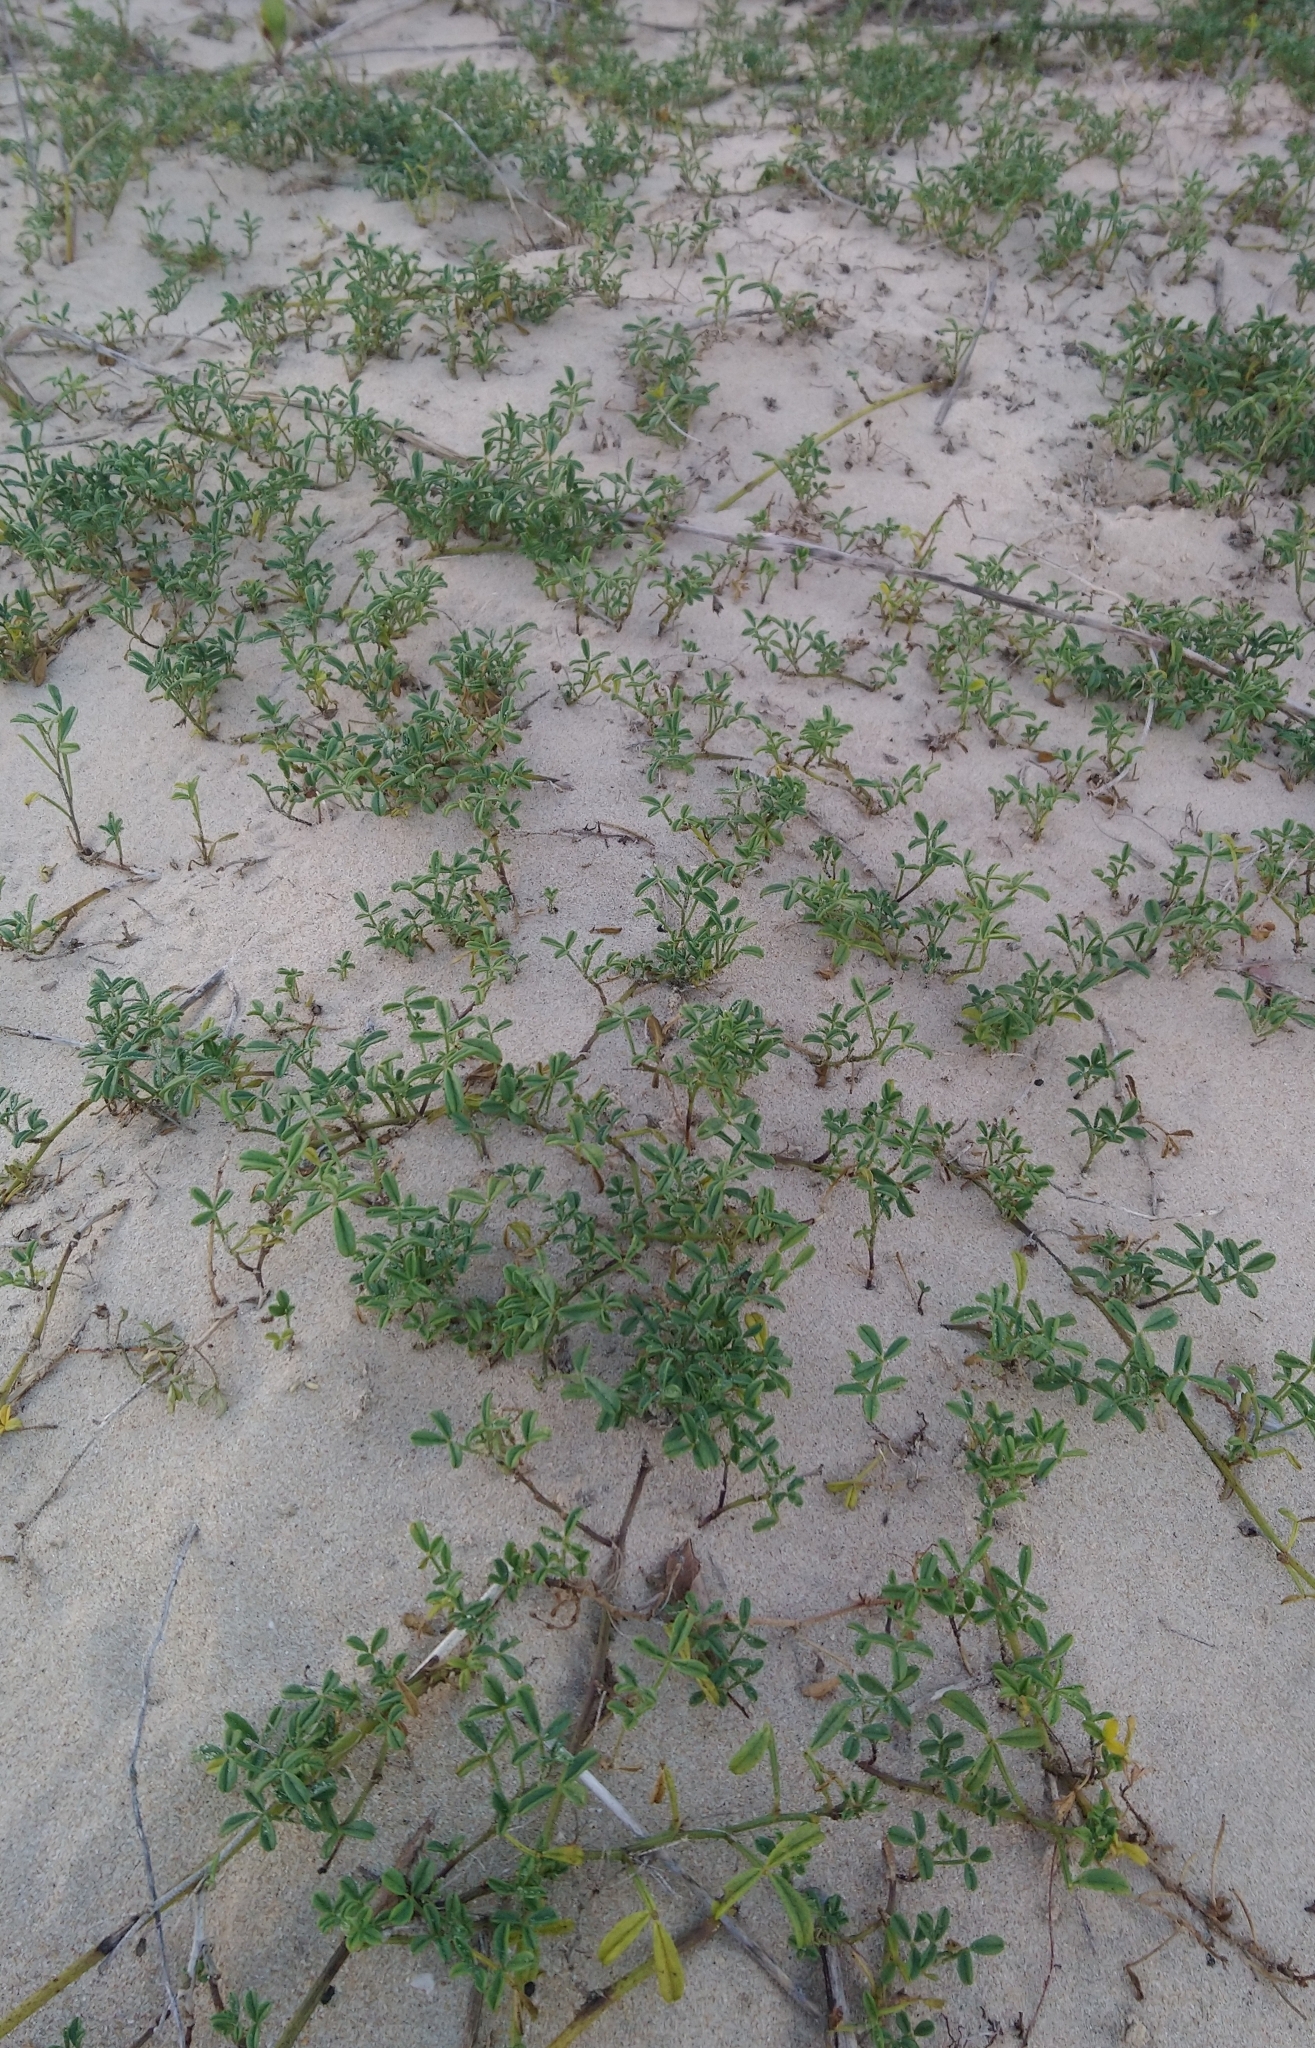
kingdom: Plantae
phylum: Tracheophyta
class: Magnoliopsida
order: Fabales
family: Fabaceae
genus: Psoralea
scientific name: Psoralea repens
